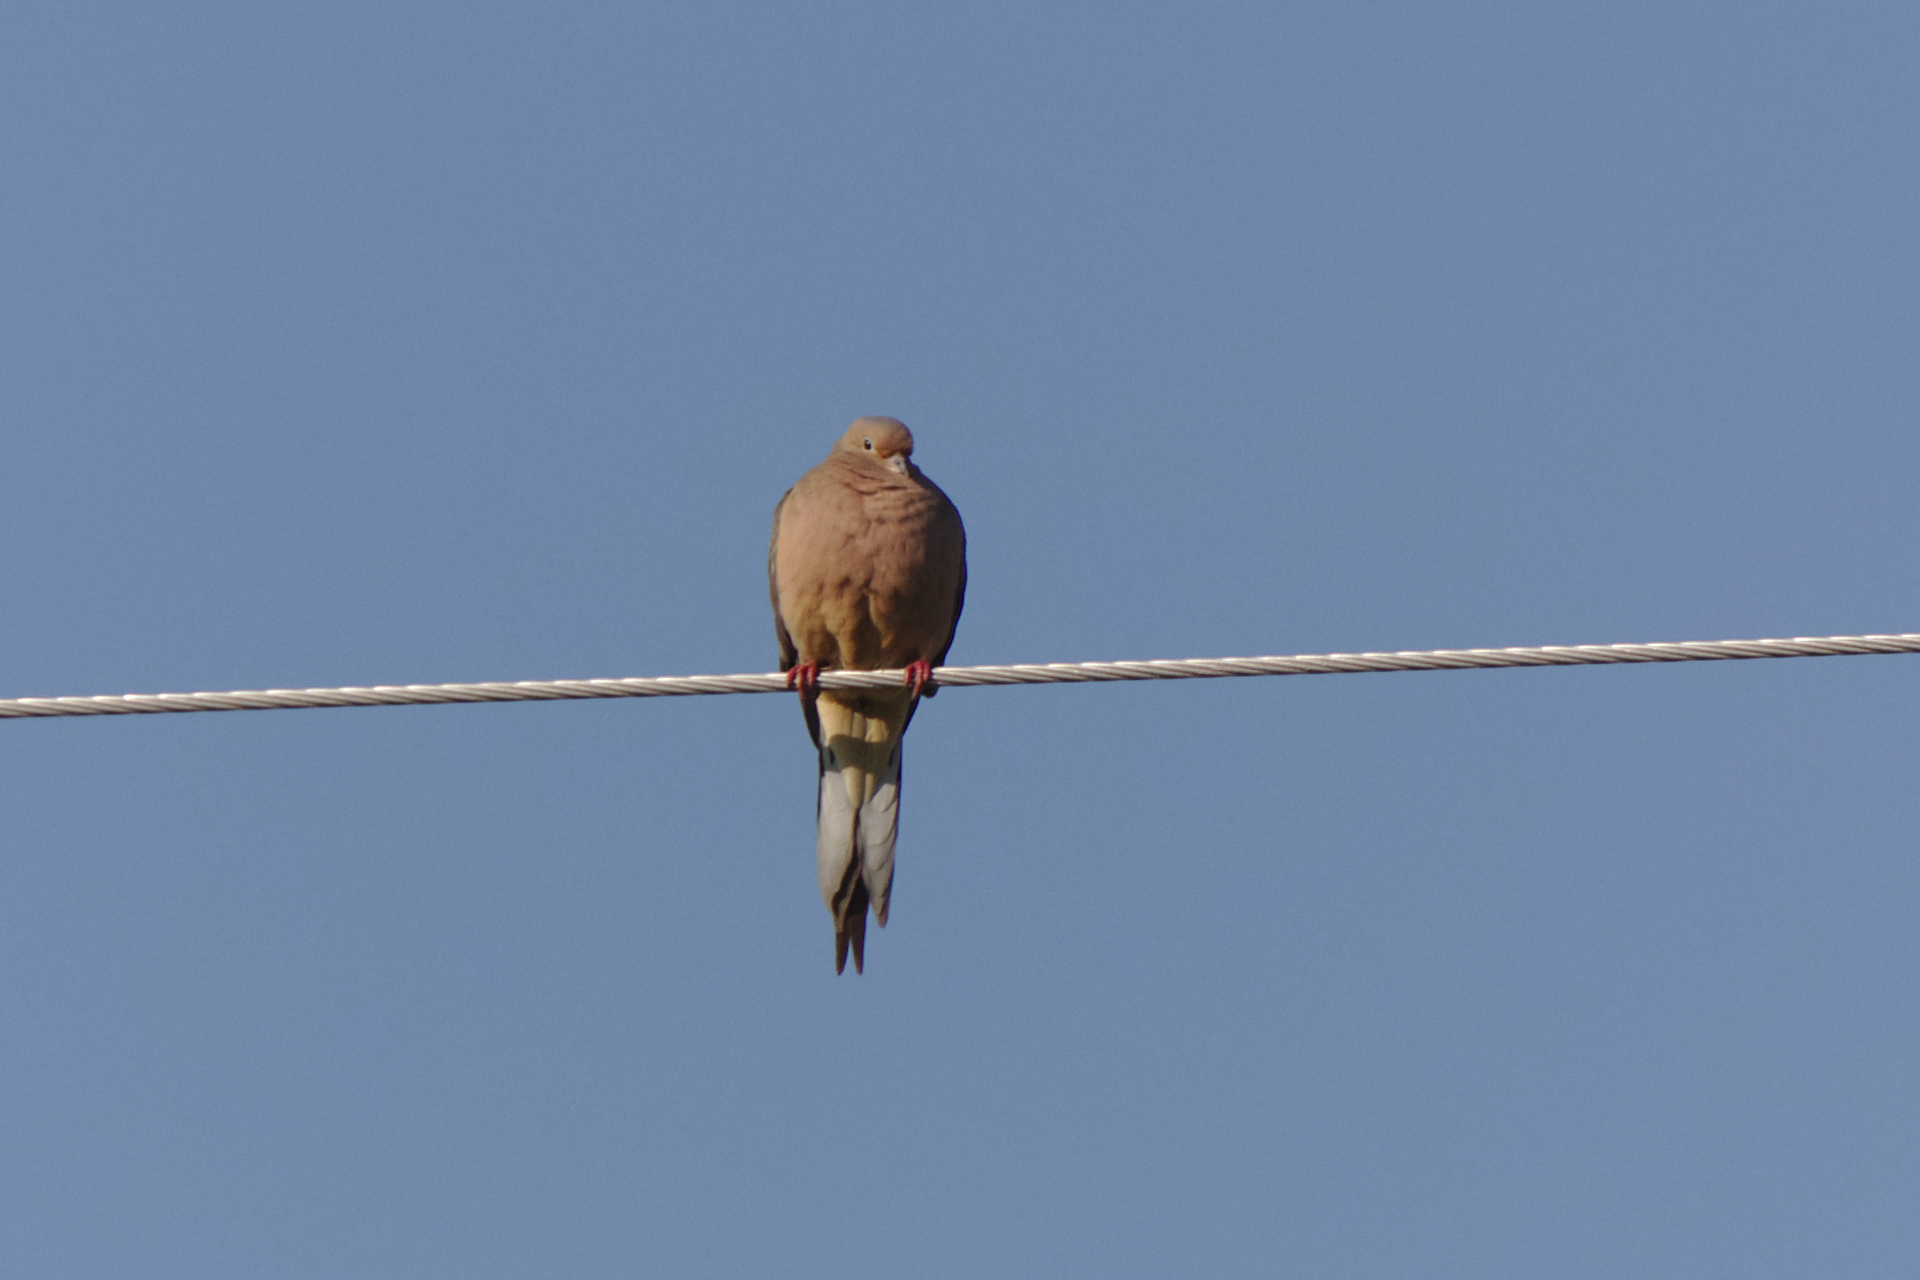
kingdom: Animalia
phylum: Chordata
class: Aves
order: Columbiformes
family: Columbidae
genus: Zenaida
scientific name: Zenaida macroura
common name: Mourning dove
